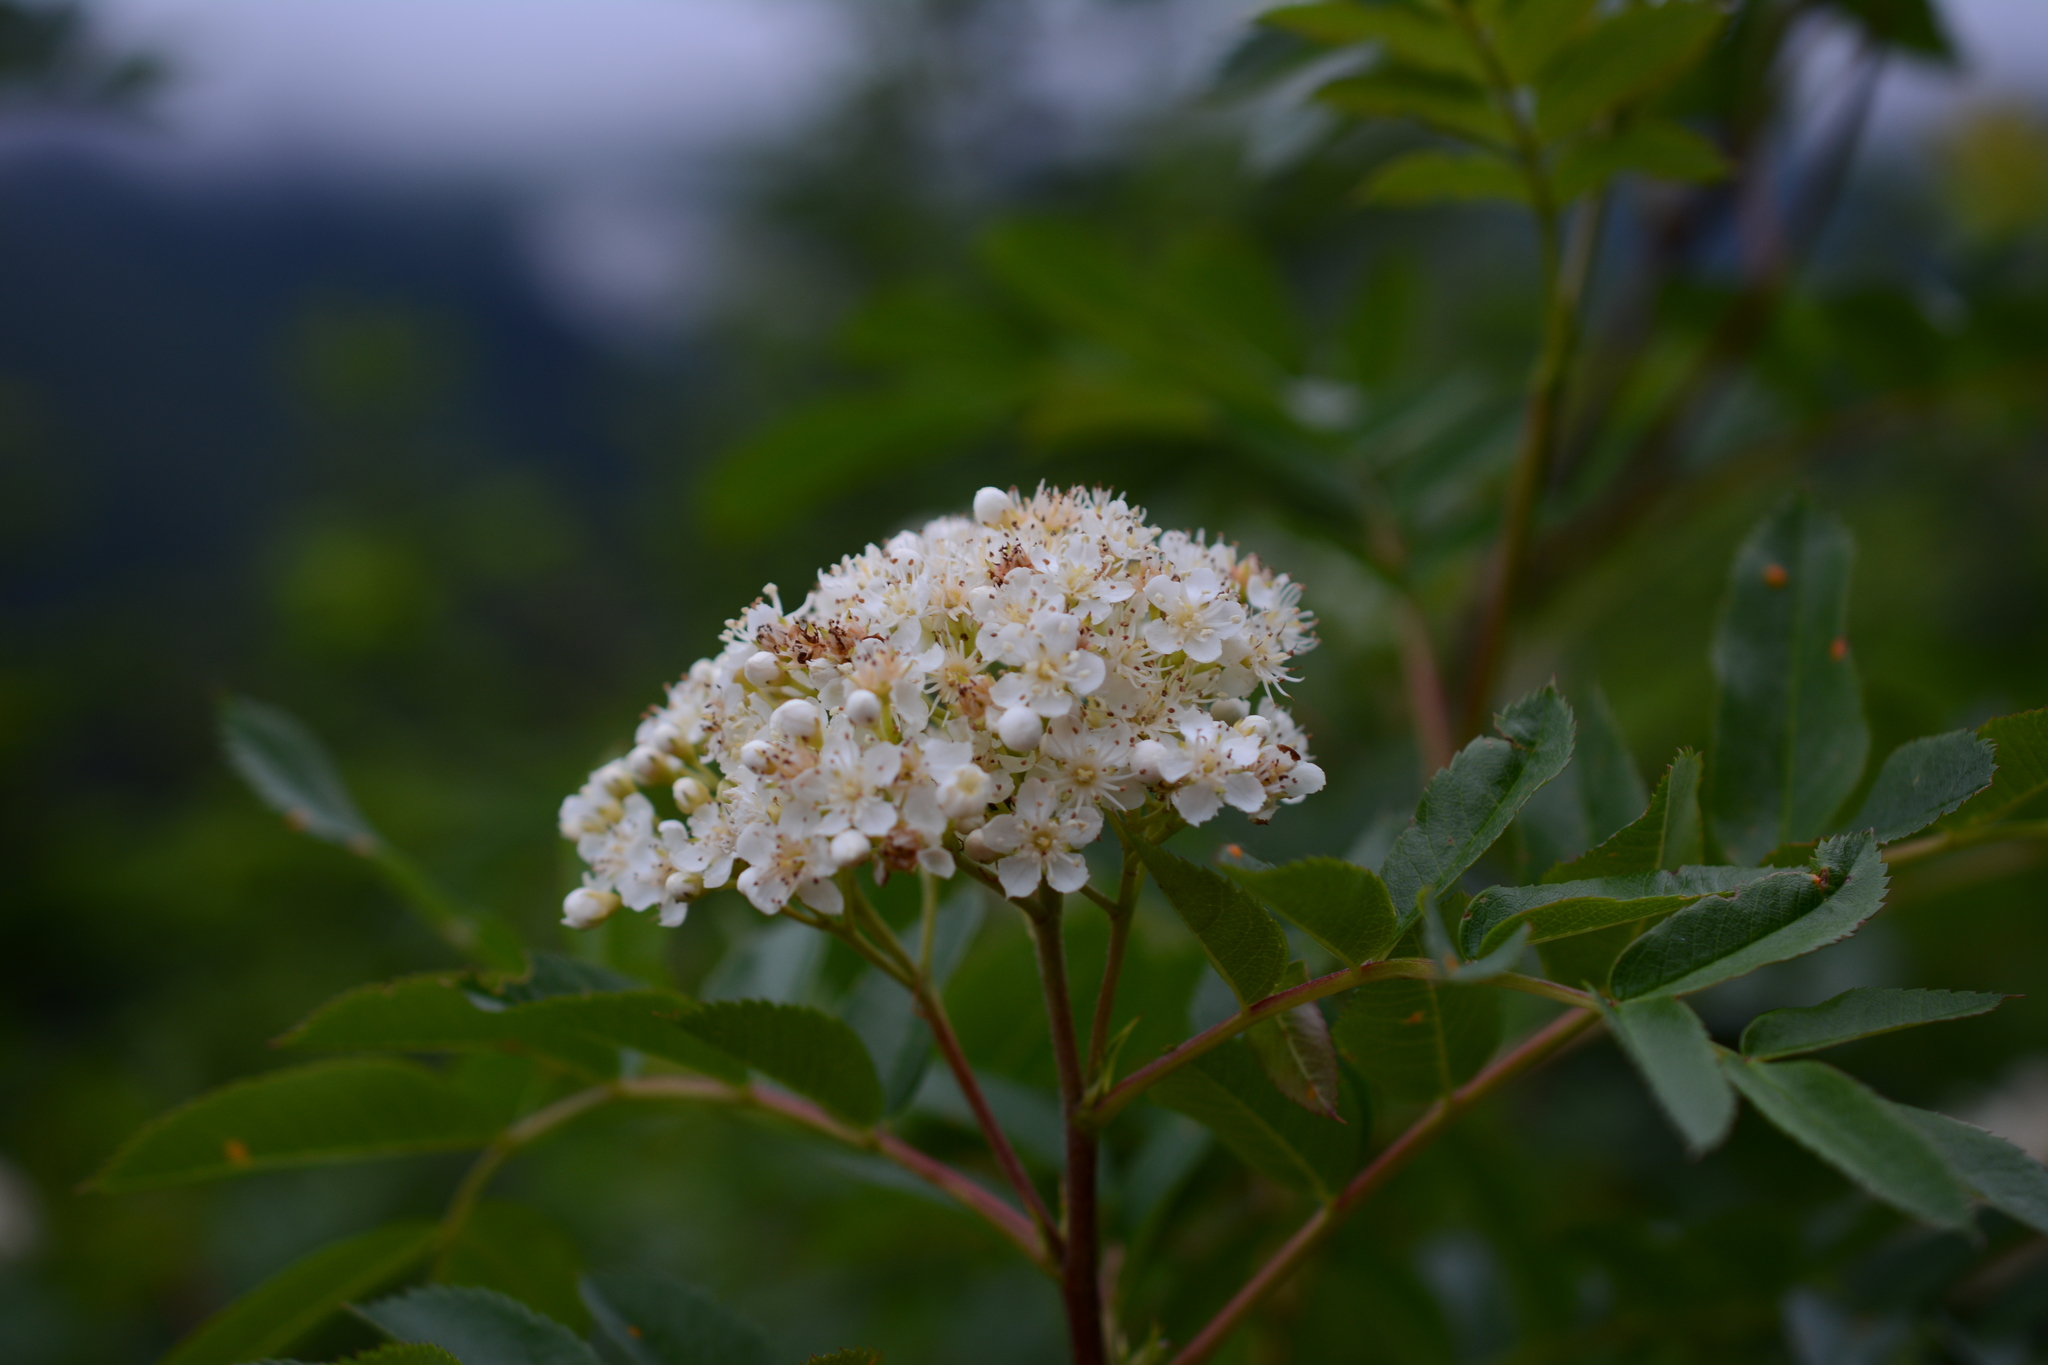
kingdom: Plantae
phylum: Tracheophyta
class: Magnoliopsida
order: Rosales
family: Rosaceae
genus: Sorbus
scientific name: Sorbus sitchensis
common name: Sitka mountain-ash
